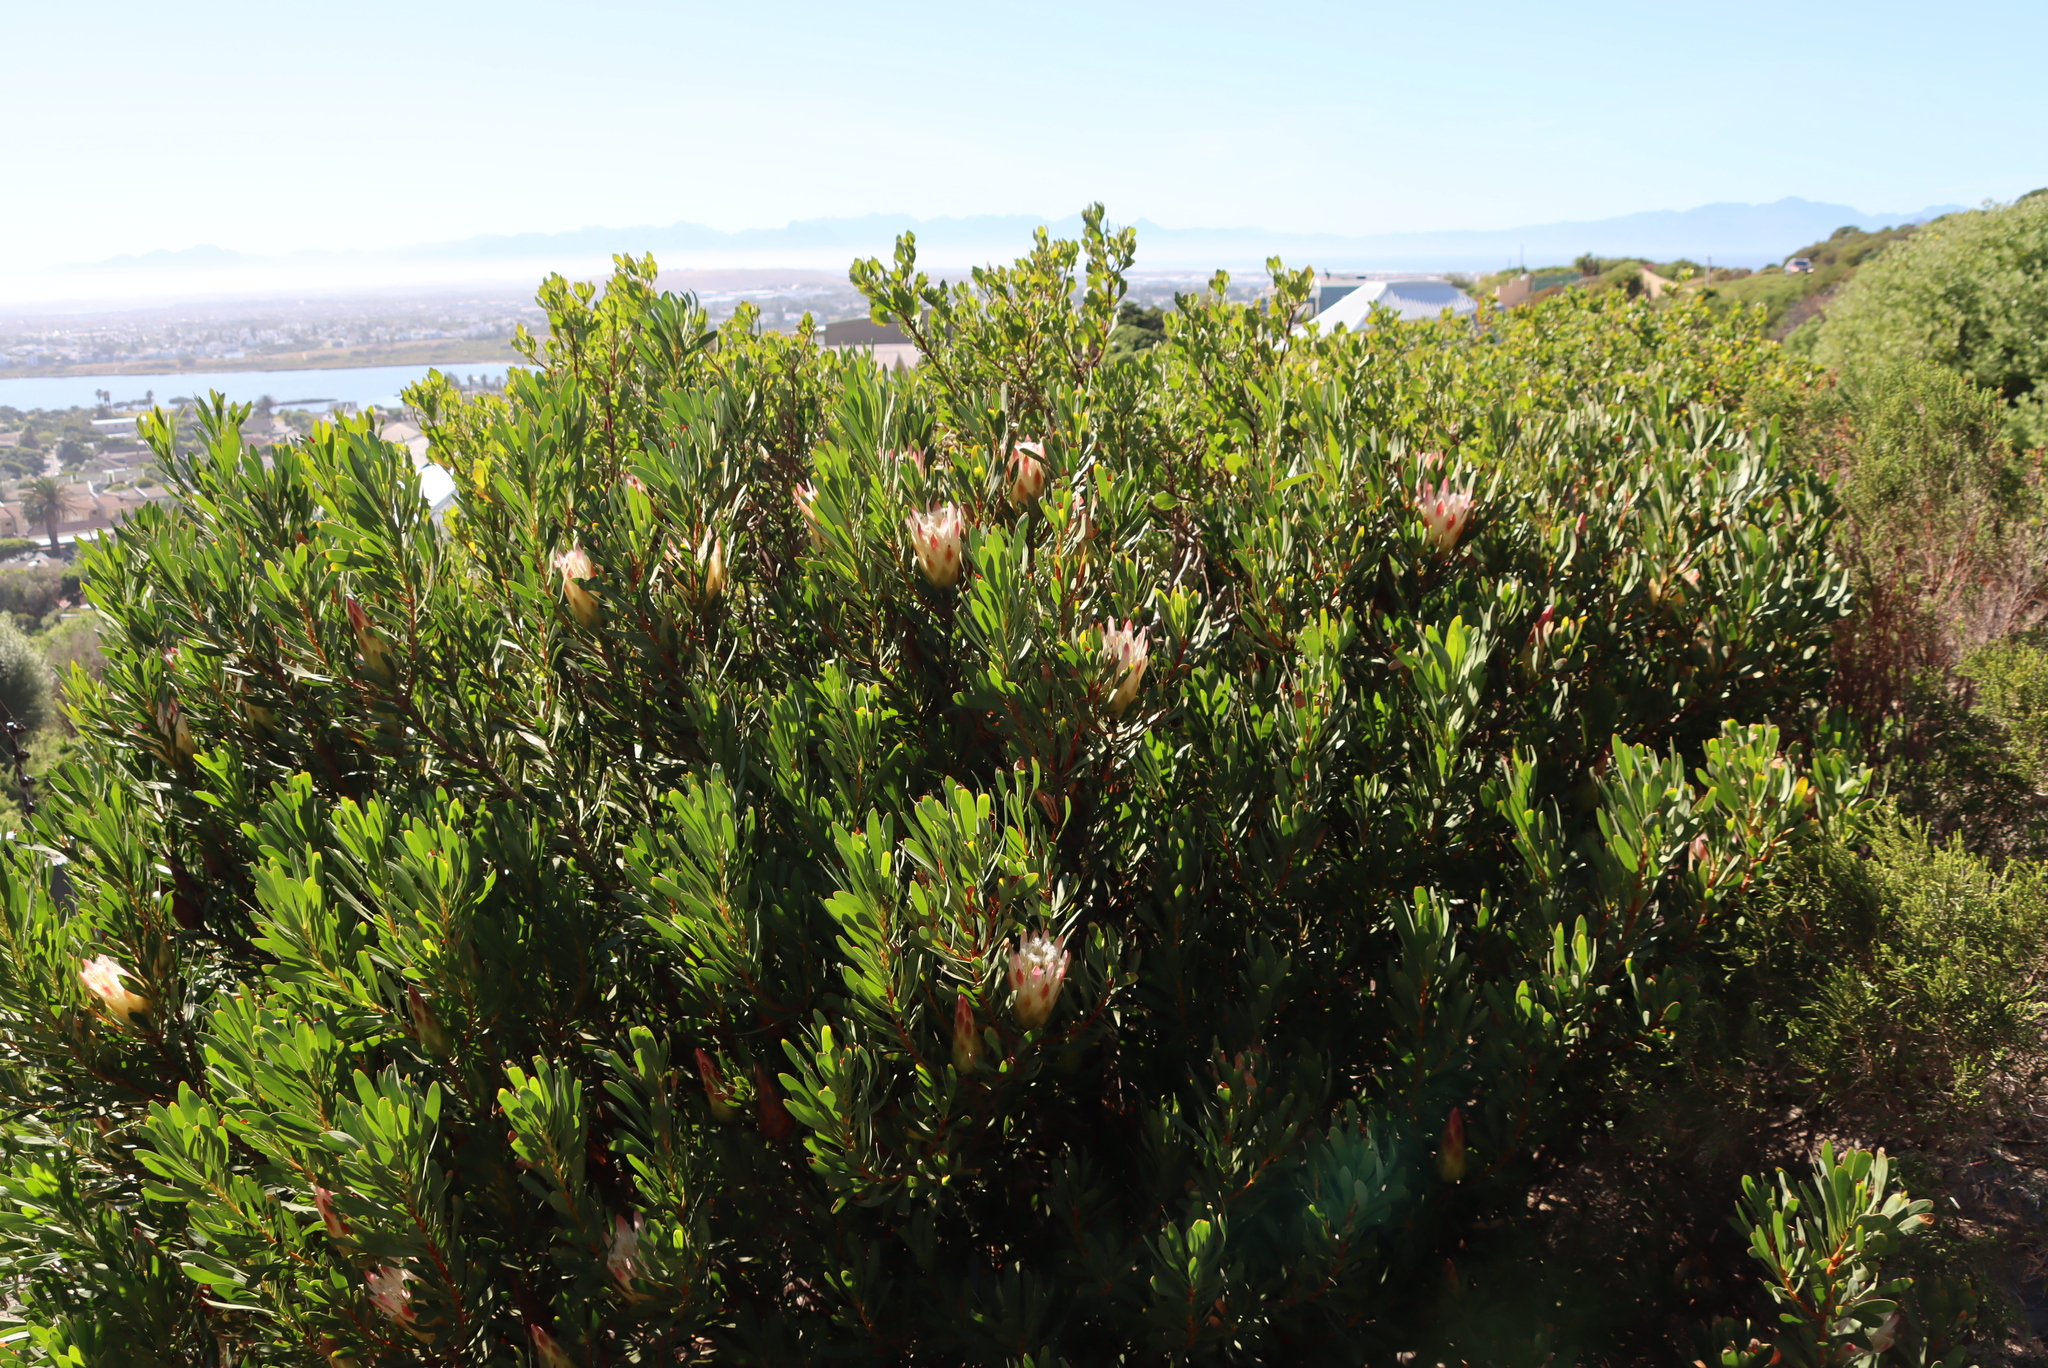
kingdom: Plantae
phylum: Tracheophyta
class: Magnoliopsida
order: Proteales
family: Proteaceae
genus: Protea
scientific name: Protea repens
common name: Sugarbush
